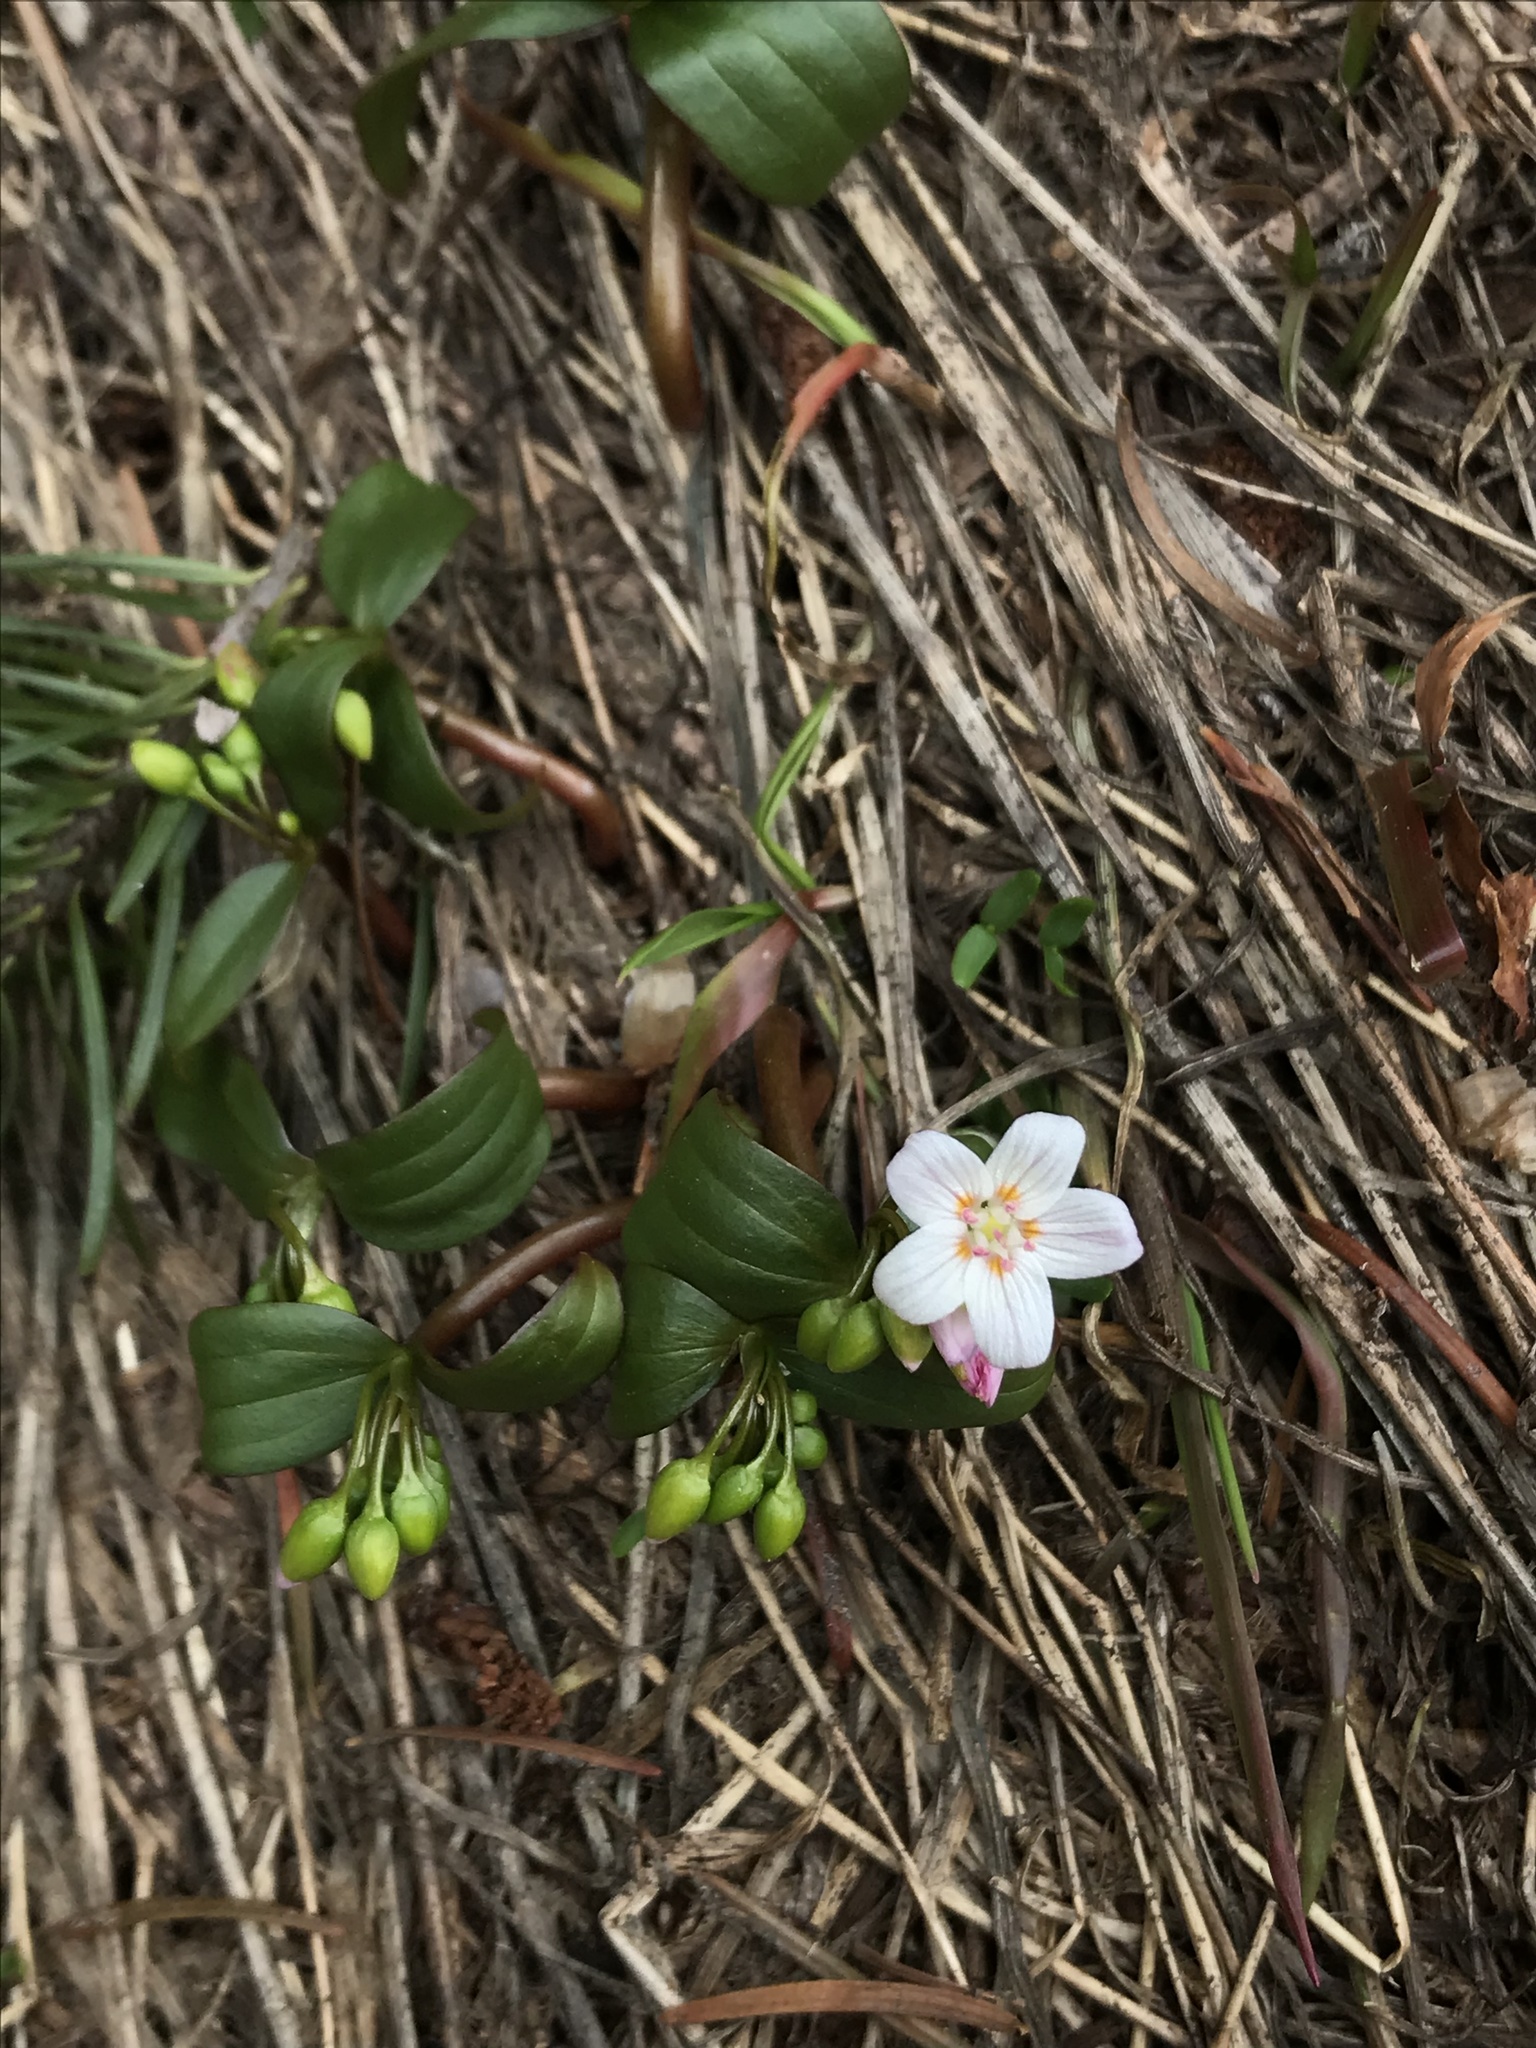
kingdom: Plantae
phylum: Tracheophyta
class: Magnoliopsida
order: Caryophyllales
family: Montiaceae
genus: Claytonia
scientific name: Claytonia lanceolata
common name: Western spring-beauty
